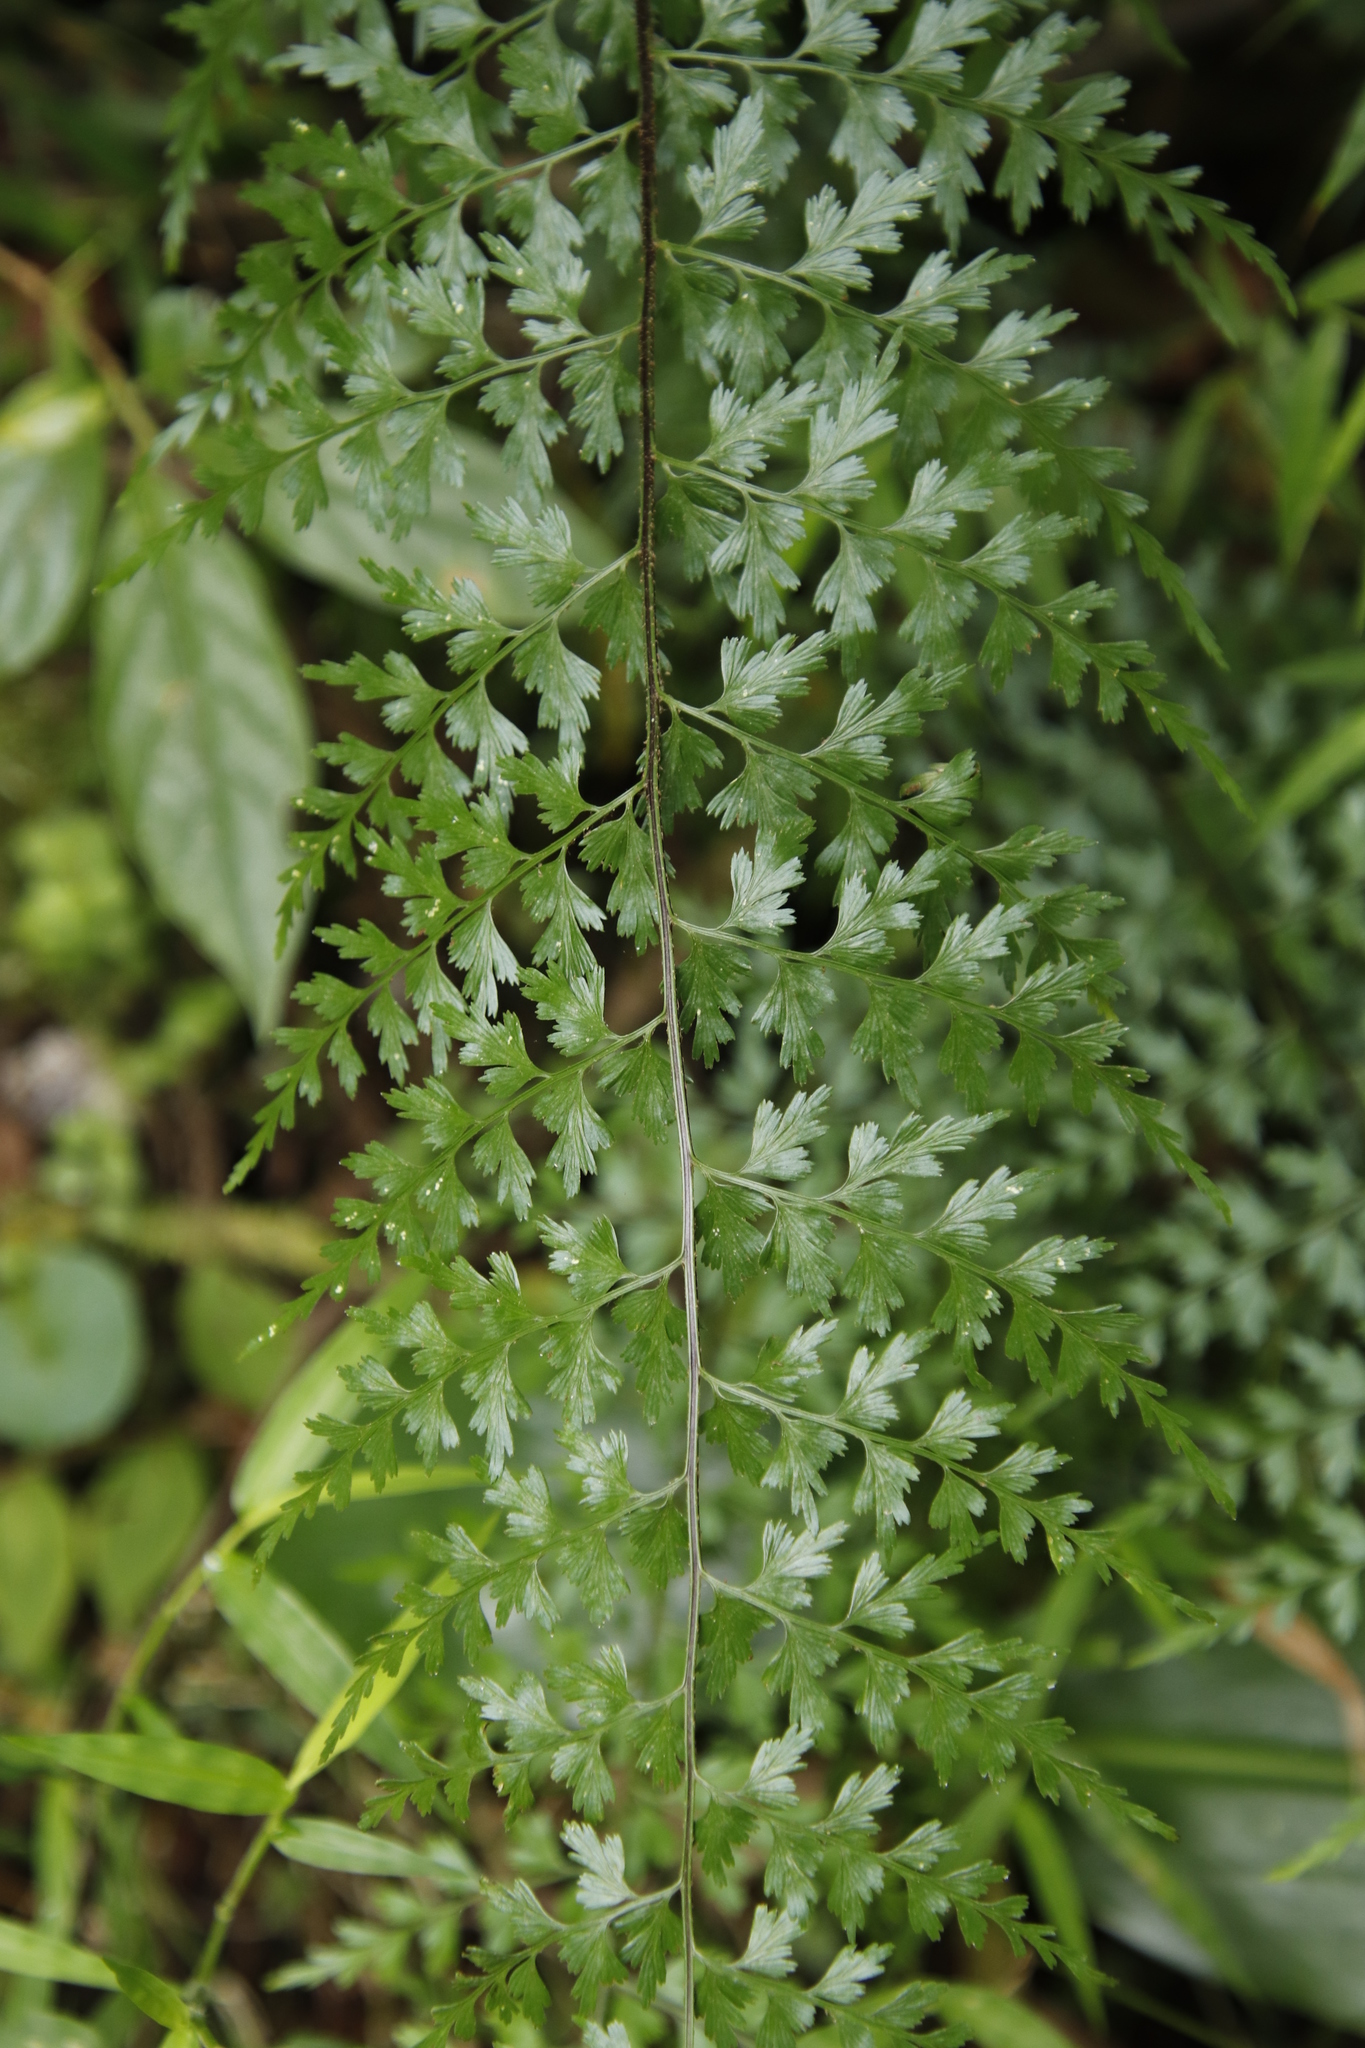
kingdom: Plantae
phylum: Tracheophyta
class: Polypodiopsida
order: Polypodiales
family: Aspleniaceae
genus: Asplenium
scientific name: Asplenium lividum
